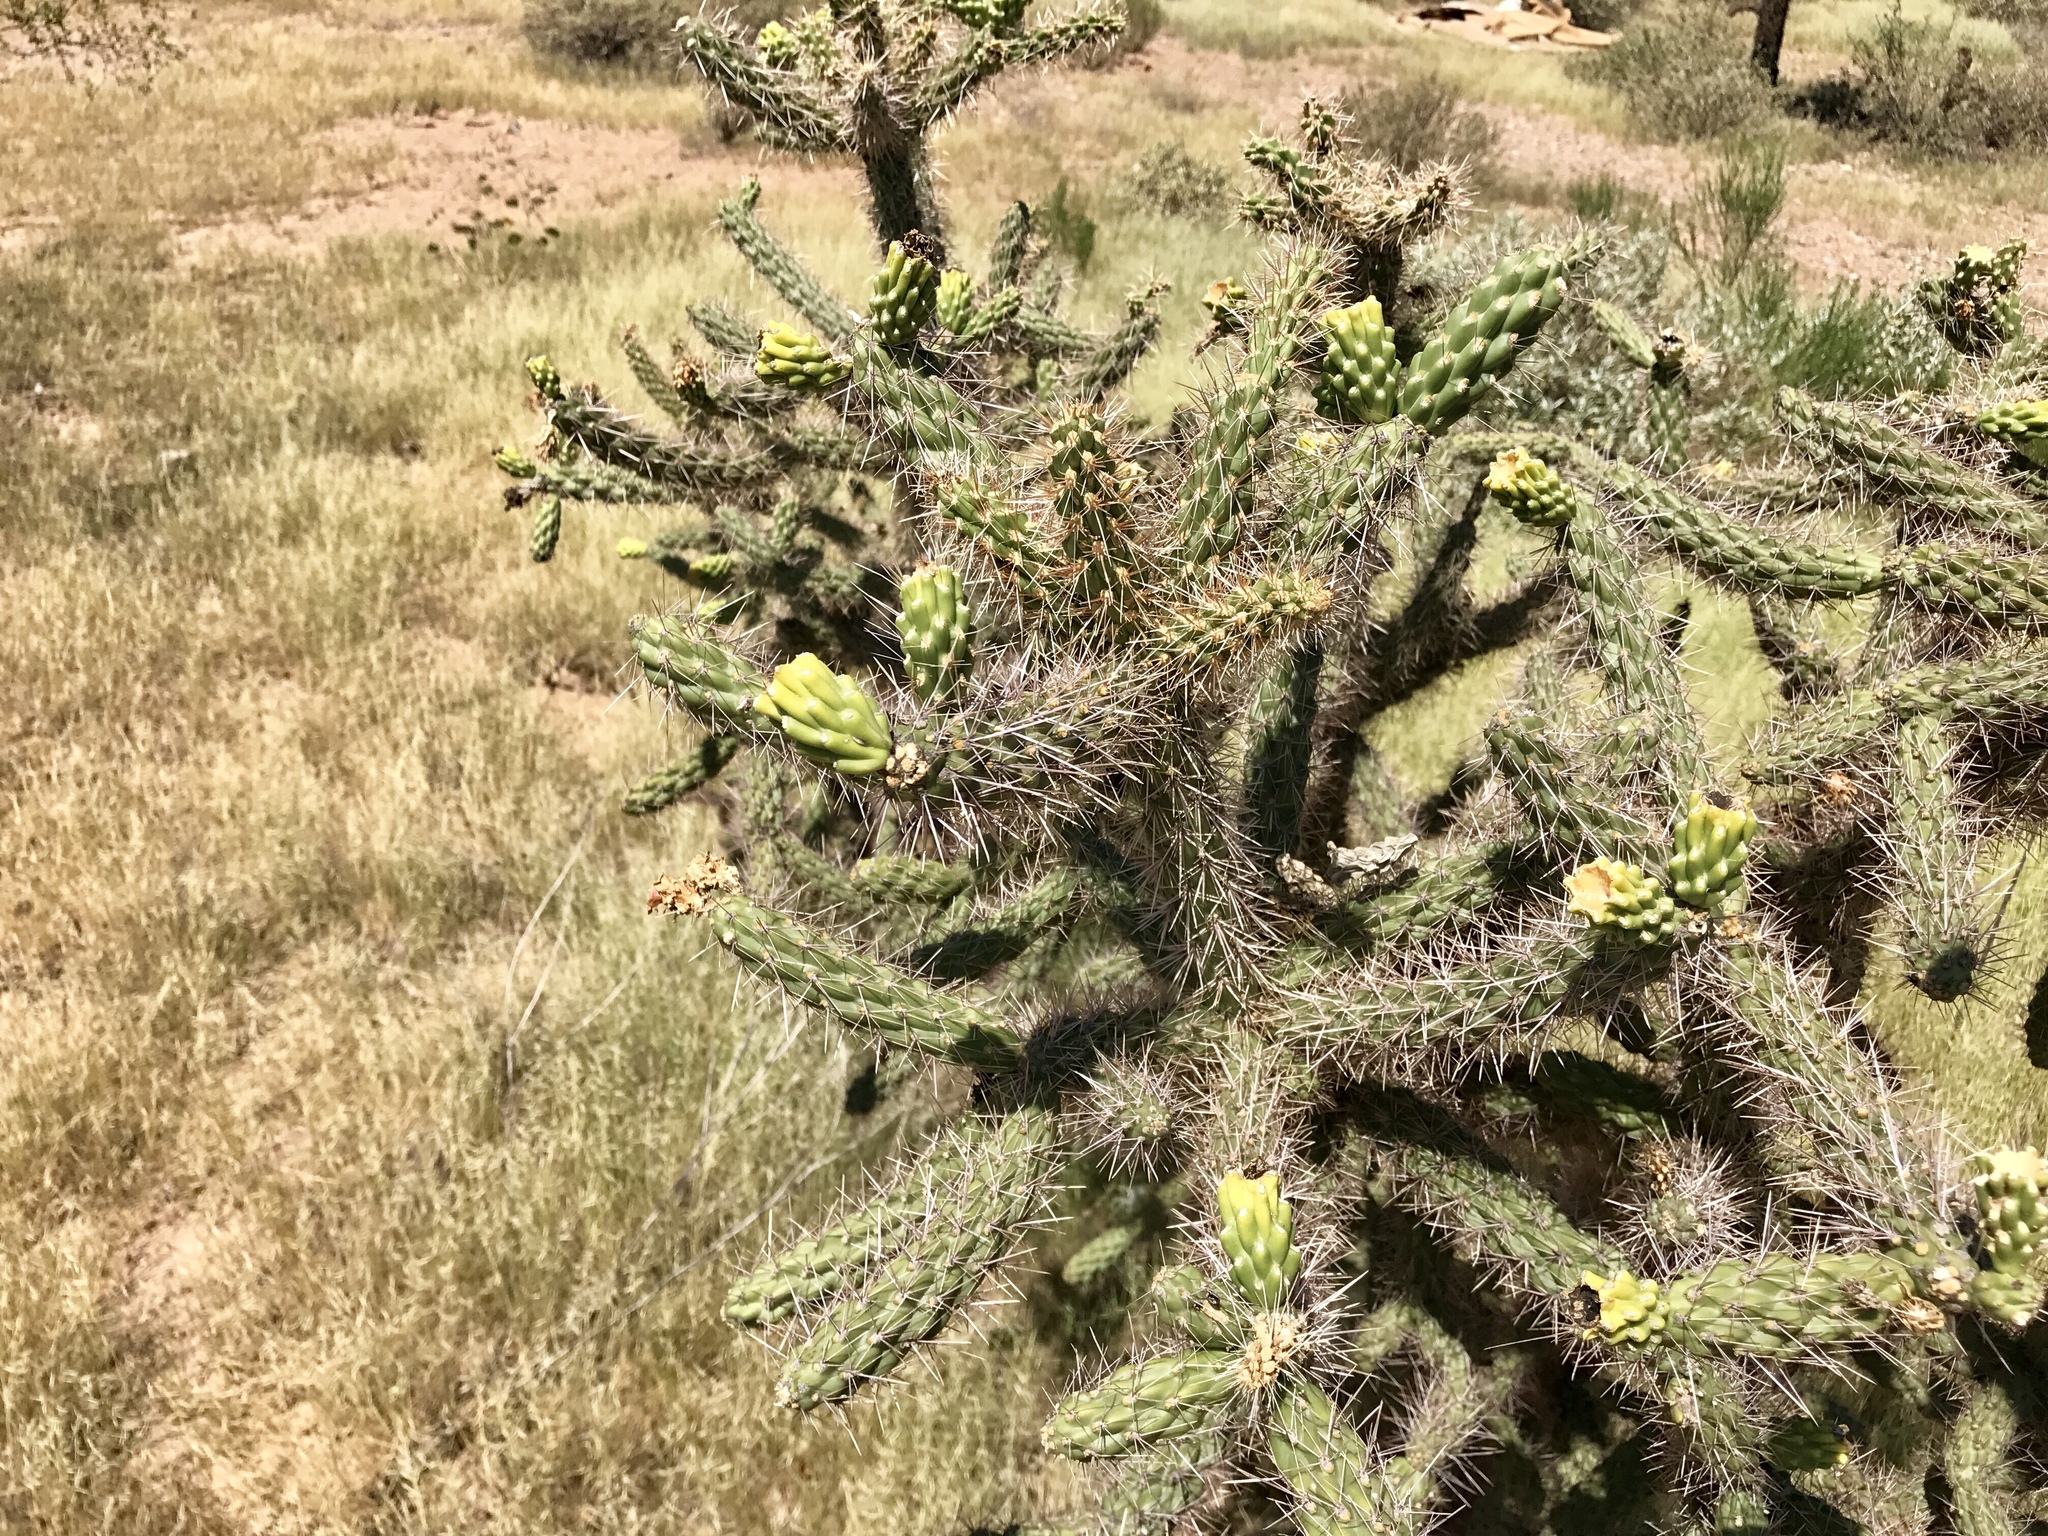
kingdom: Plantae
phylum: Tracheophyta
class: Magnoliopsida
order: Caryophyllales
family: Cactaceae
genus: Cylindropuntia
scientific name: Cylindropuntia imbricata
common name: Candelabrum cactus
